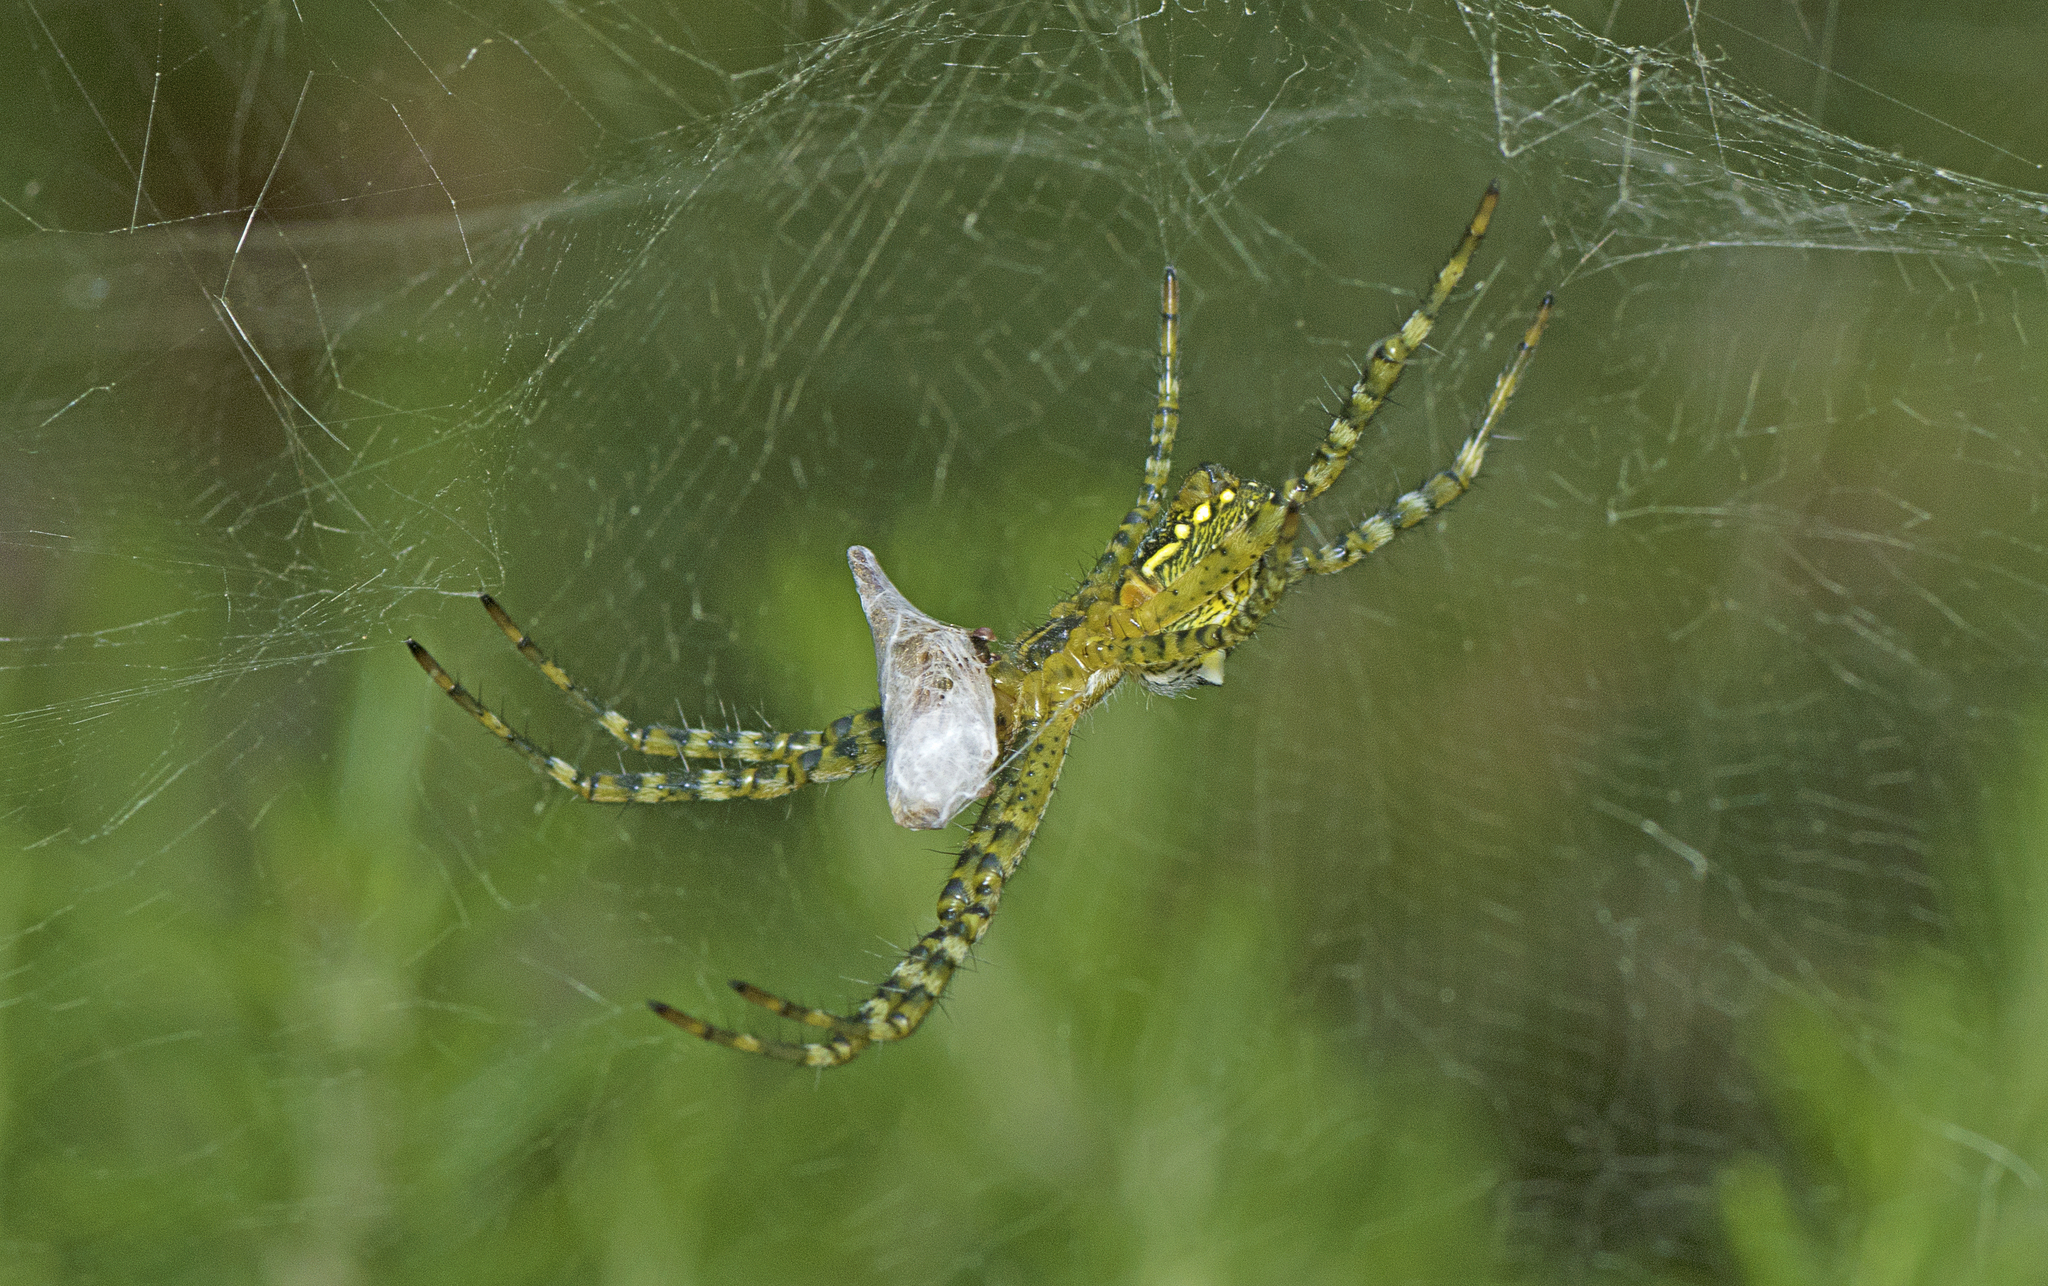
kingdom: Chromista
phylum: Ochrophyta
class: Dictyochophyceae
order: Pedinellales
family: Cyrtophoraceae
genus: Cyrtophora
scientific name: Cyrtophora moluccensis
